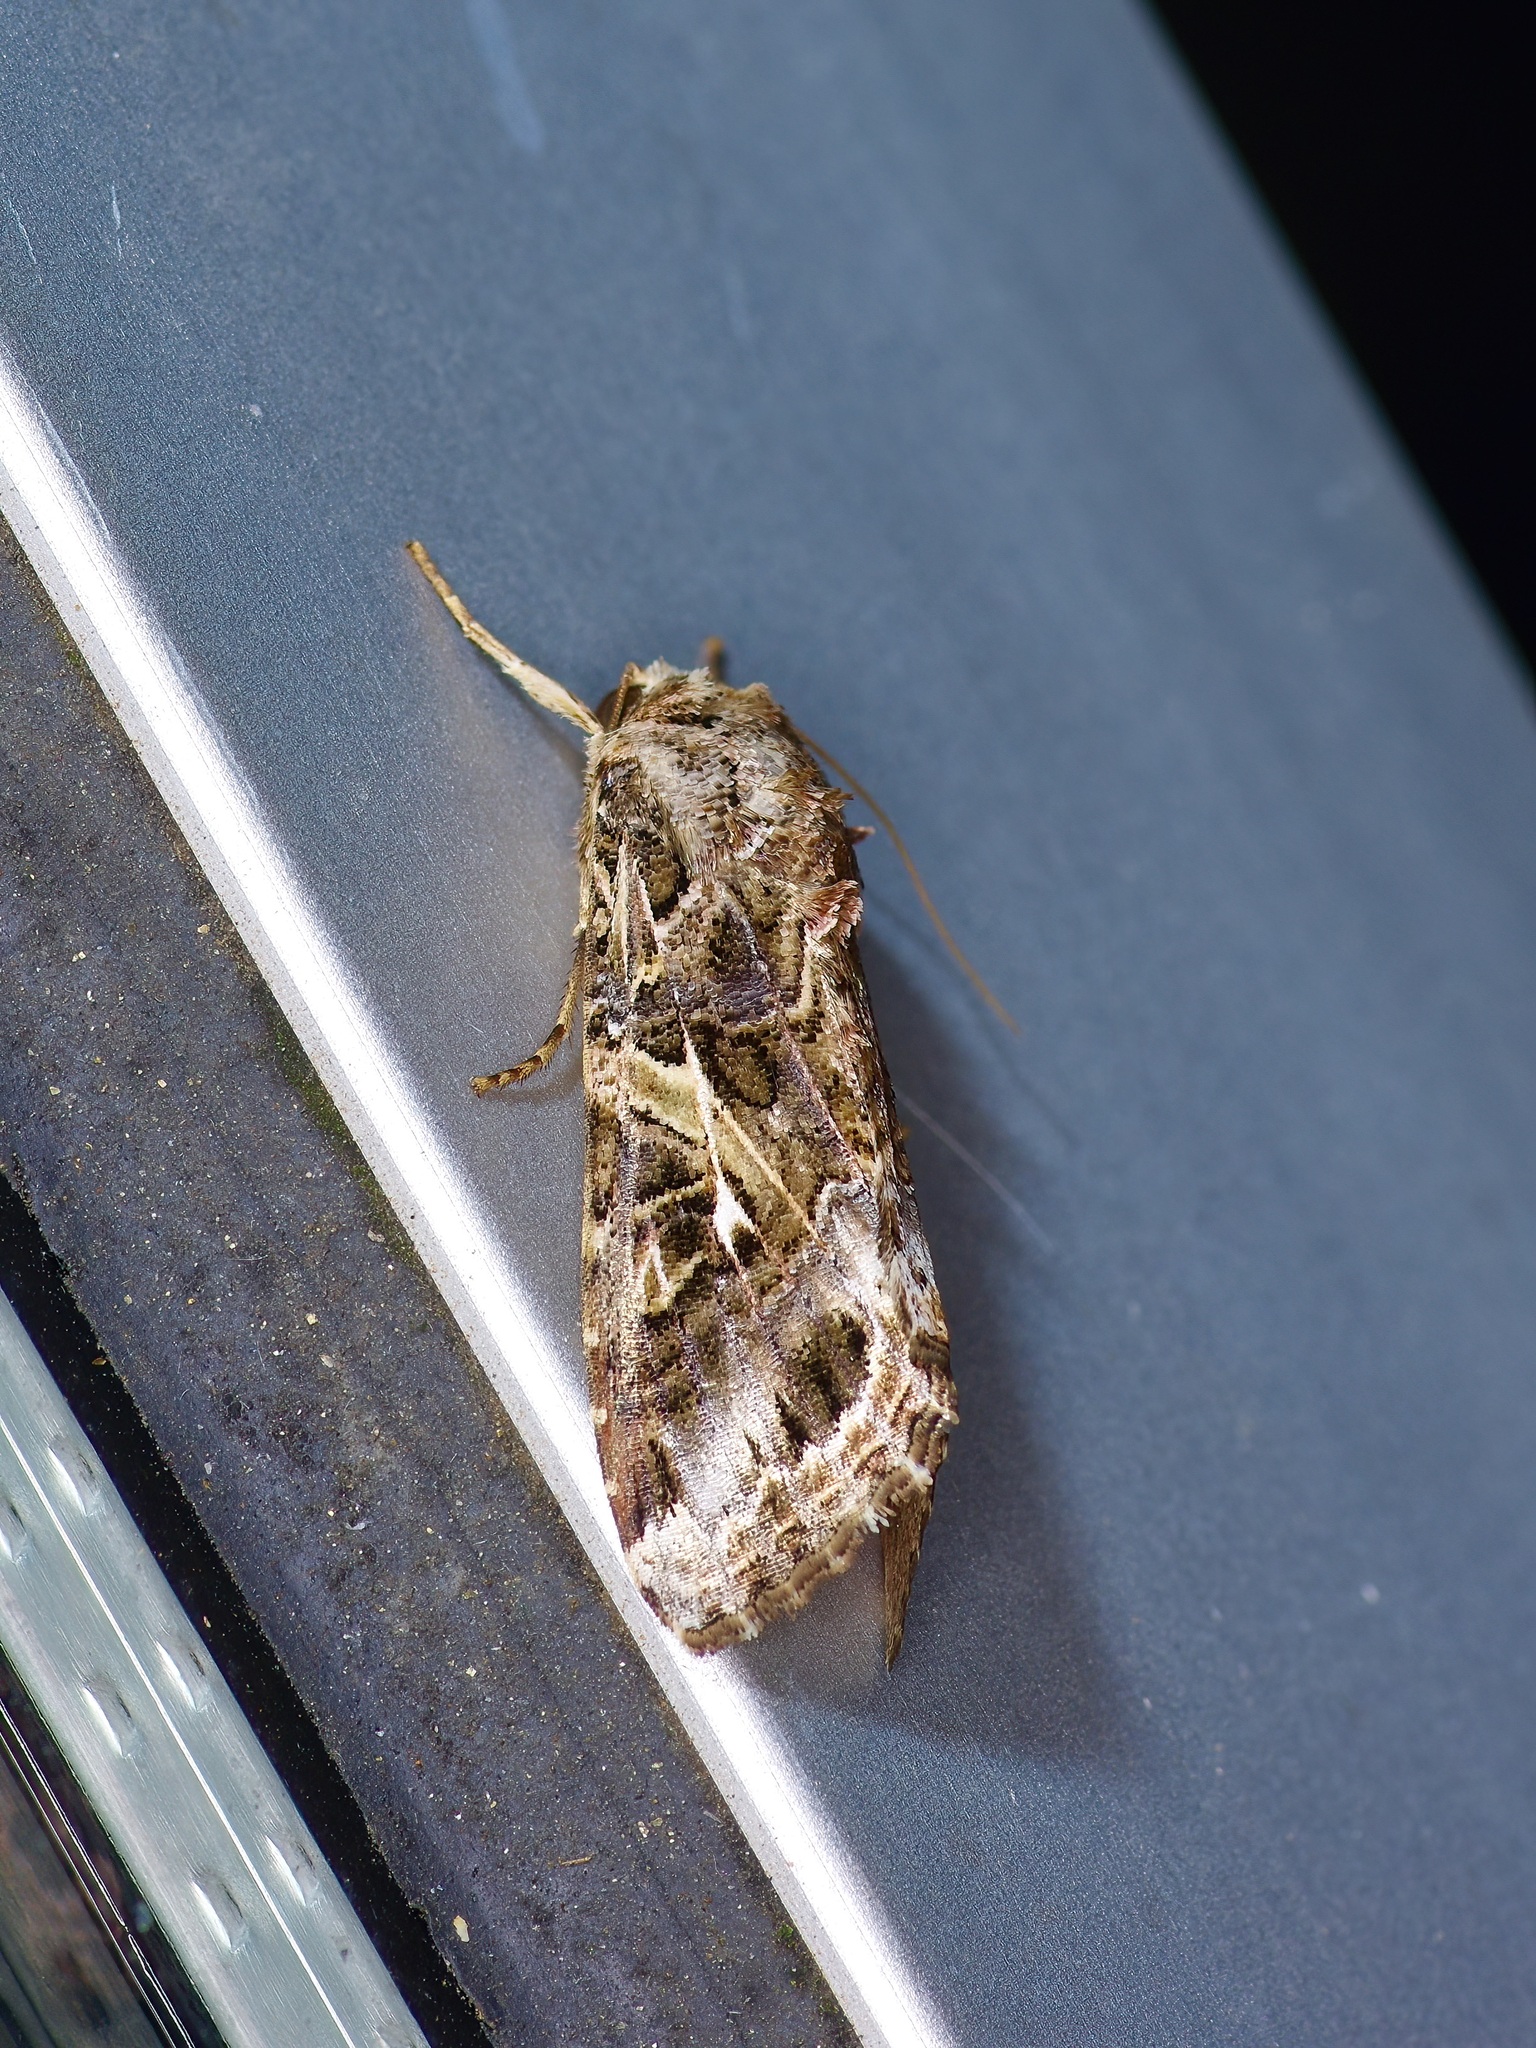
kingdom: Animalia
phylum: Arthropoda
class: Insecta
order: Lepidoptera
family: Noctuidae
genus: Spodoptera
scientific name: Spodoptera ornithogalli
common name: Yellow-striped armyworm
